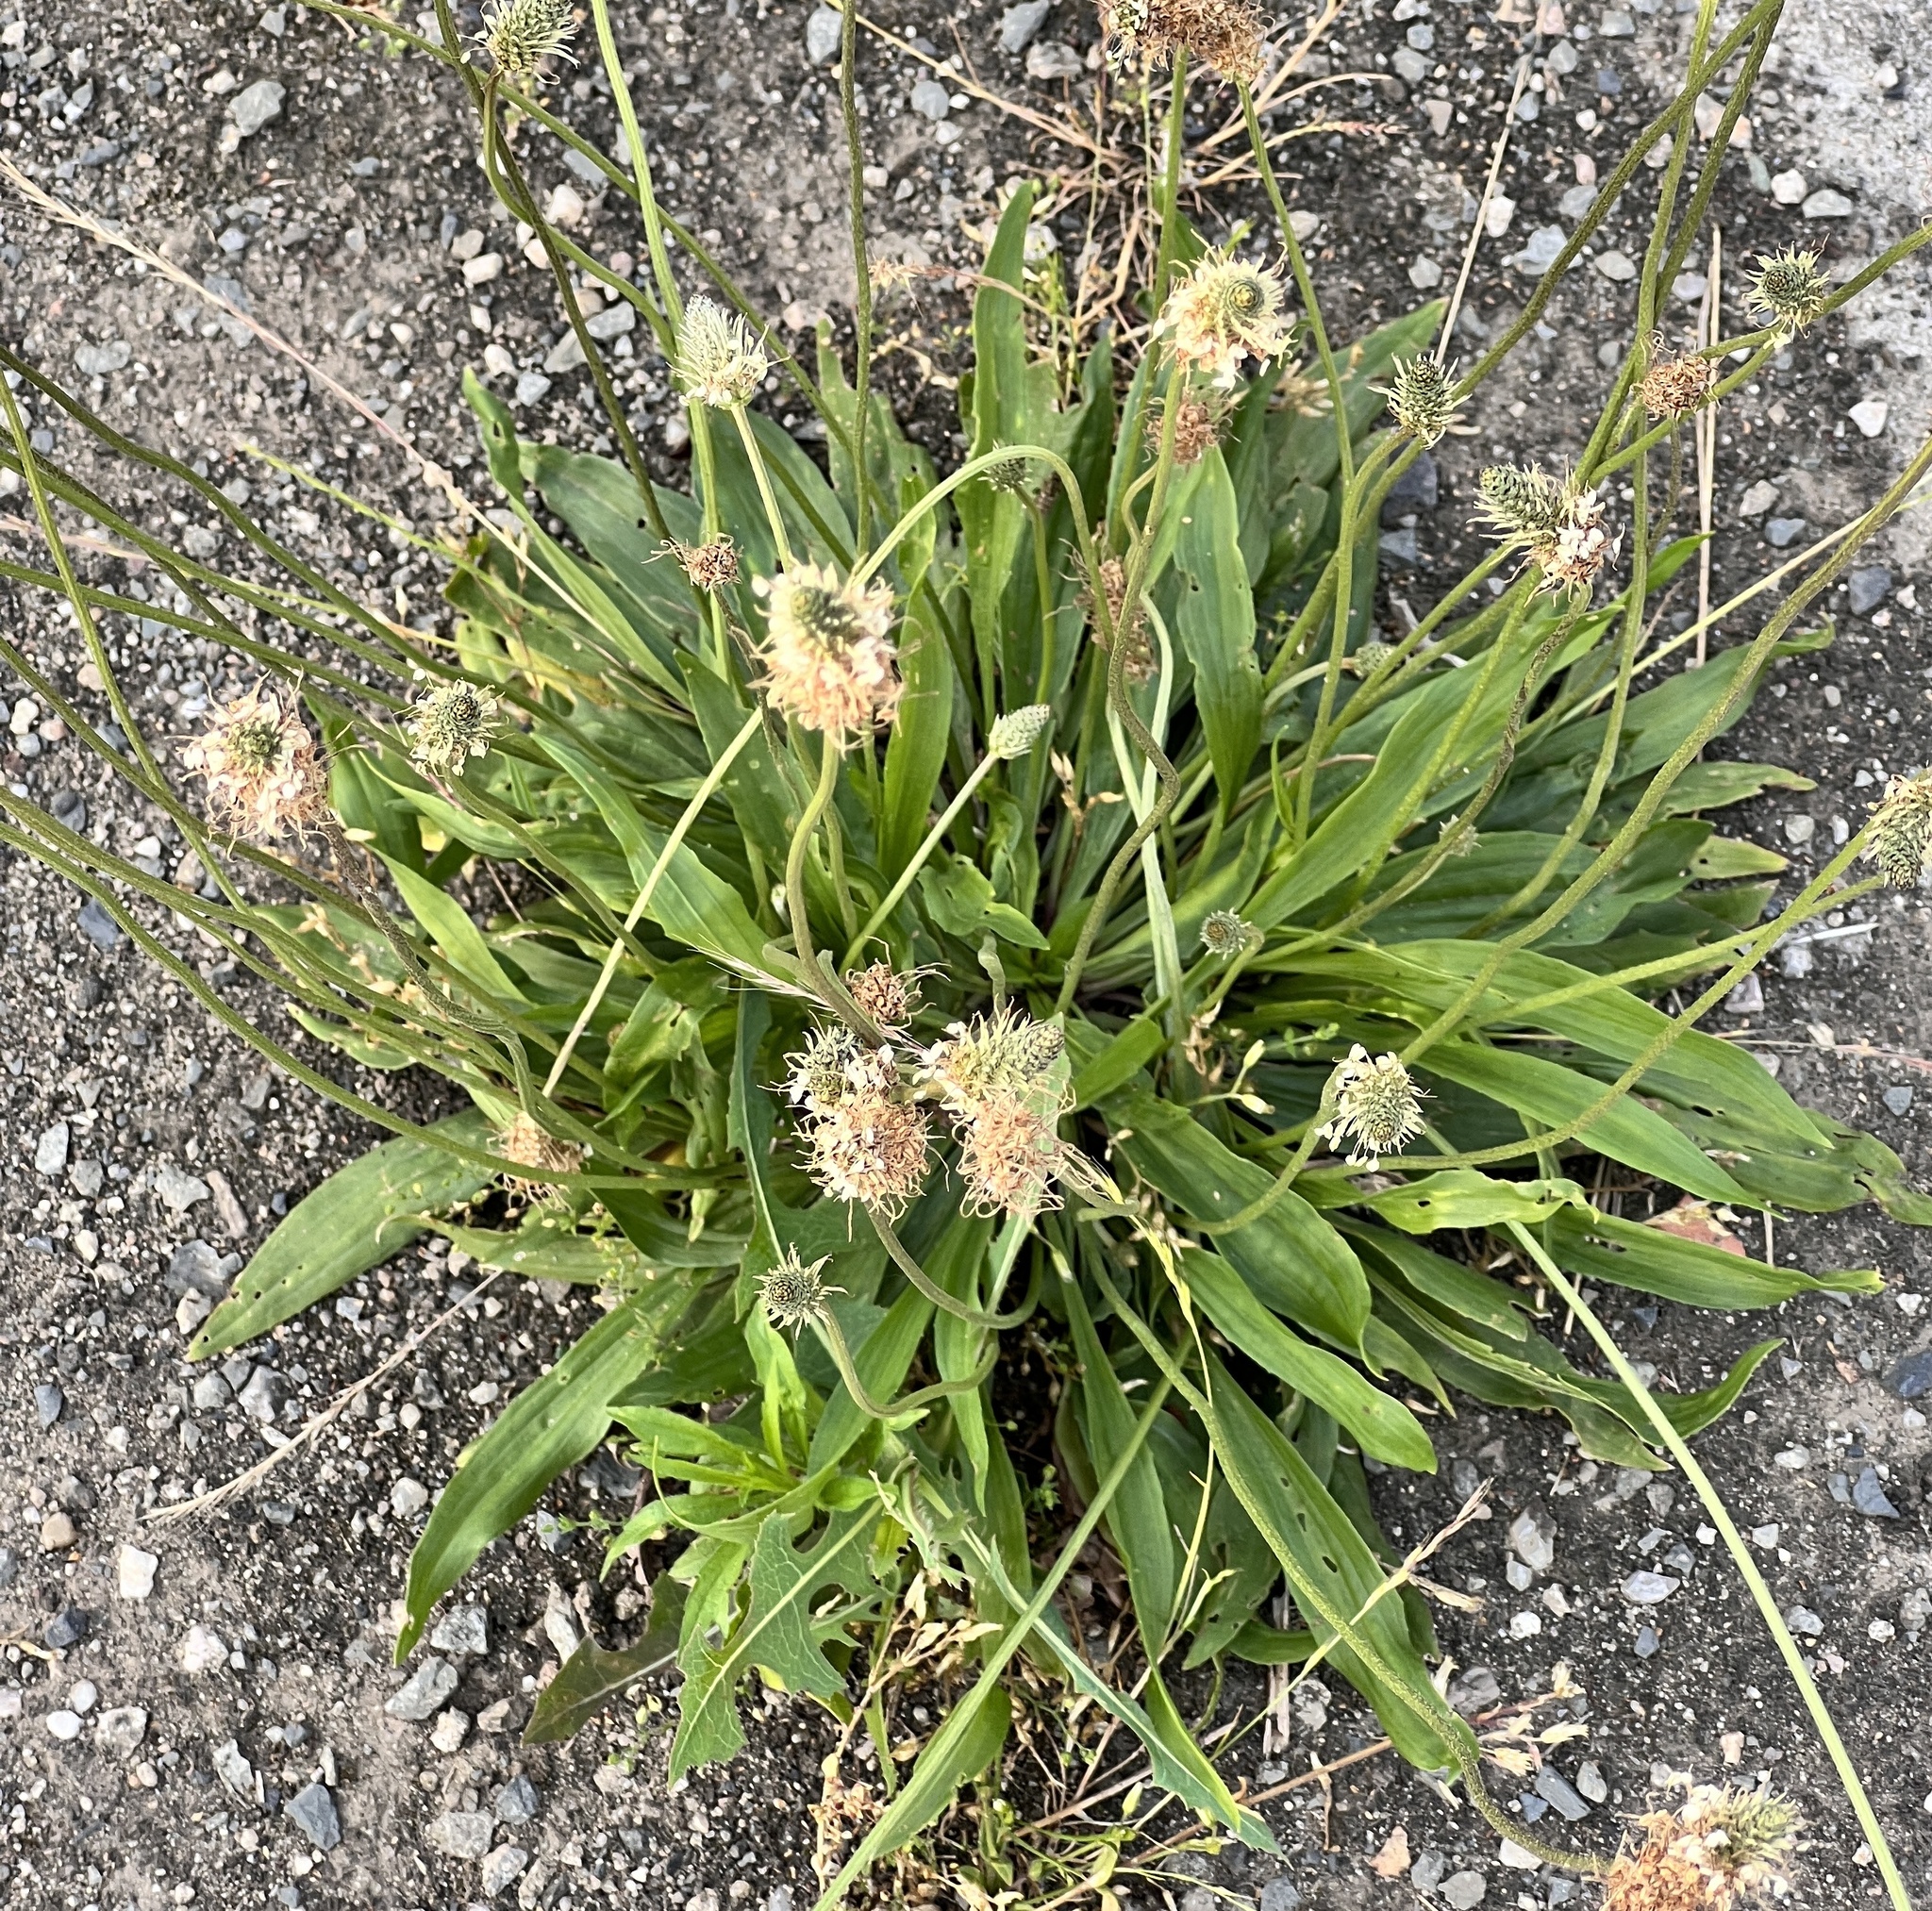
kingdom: Plantae
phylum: Tracheophyta
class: Magnoliopsida
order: Lamiales
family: Plantaginaceae
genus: Plantago
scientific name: Plantago lanceolata
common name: Ribwort plantain
